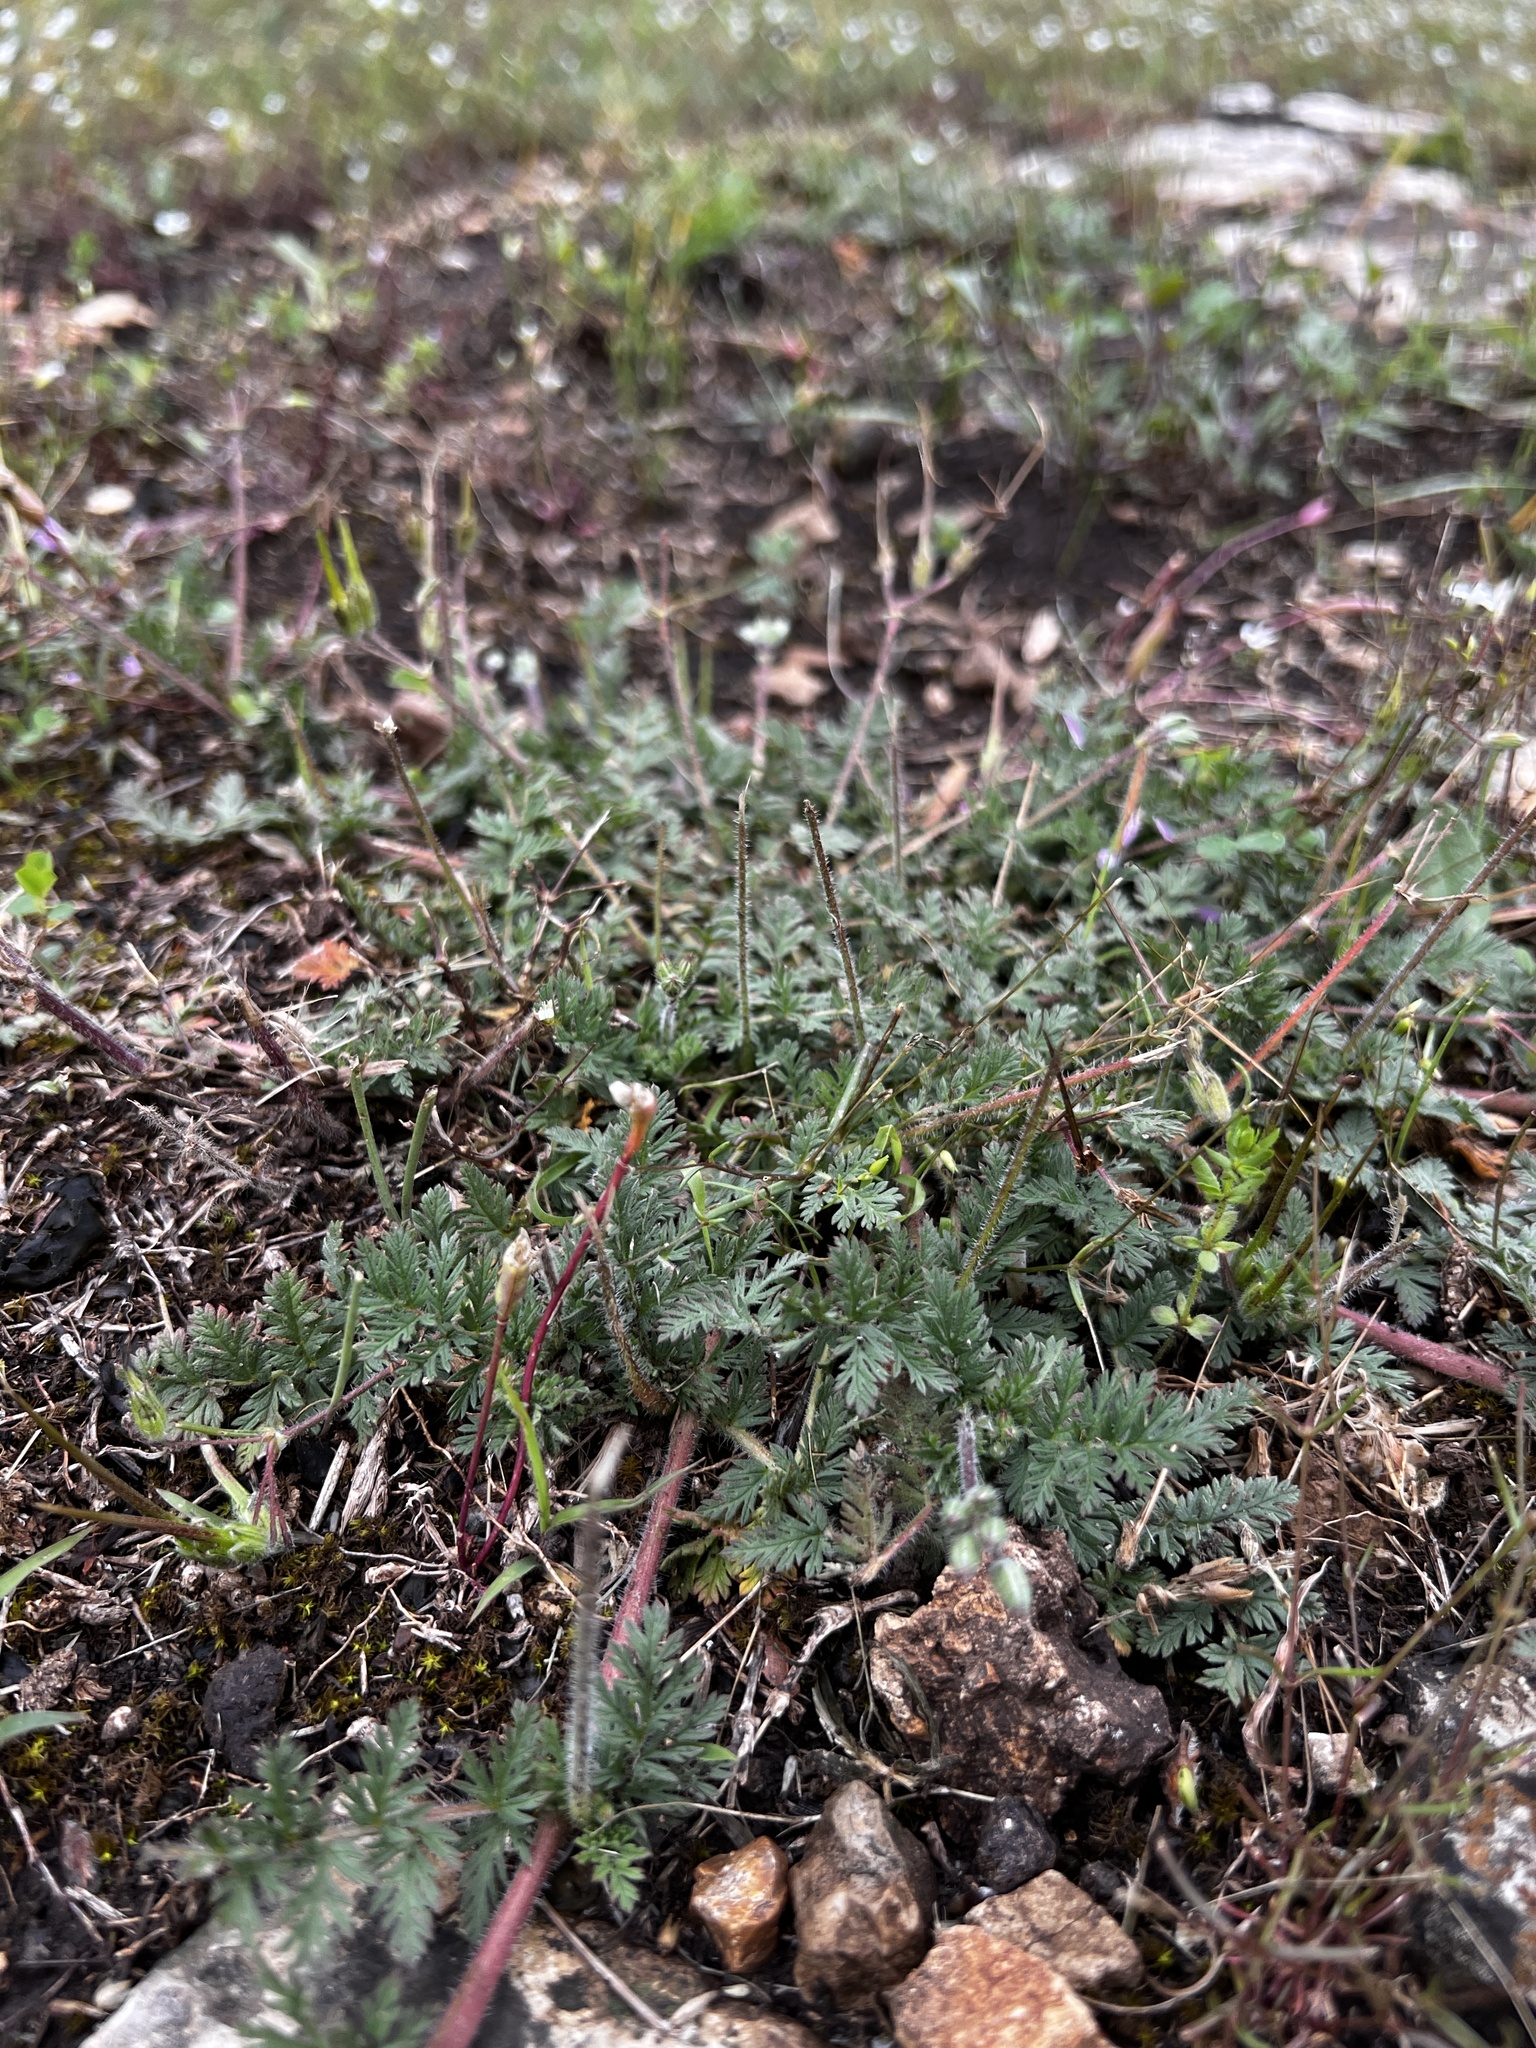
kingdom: Plantae
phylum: Tracheophyta
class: Magnoliopsida
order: Geraniales
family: Geraniaceae
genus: Erodium
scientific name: Erodium cicutarium
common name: Common stork's-bill
